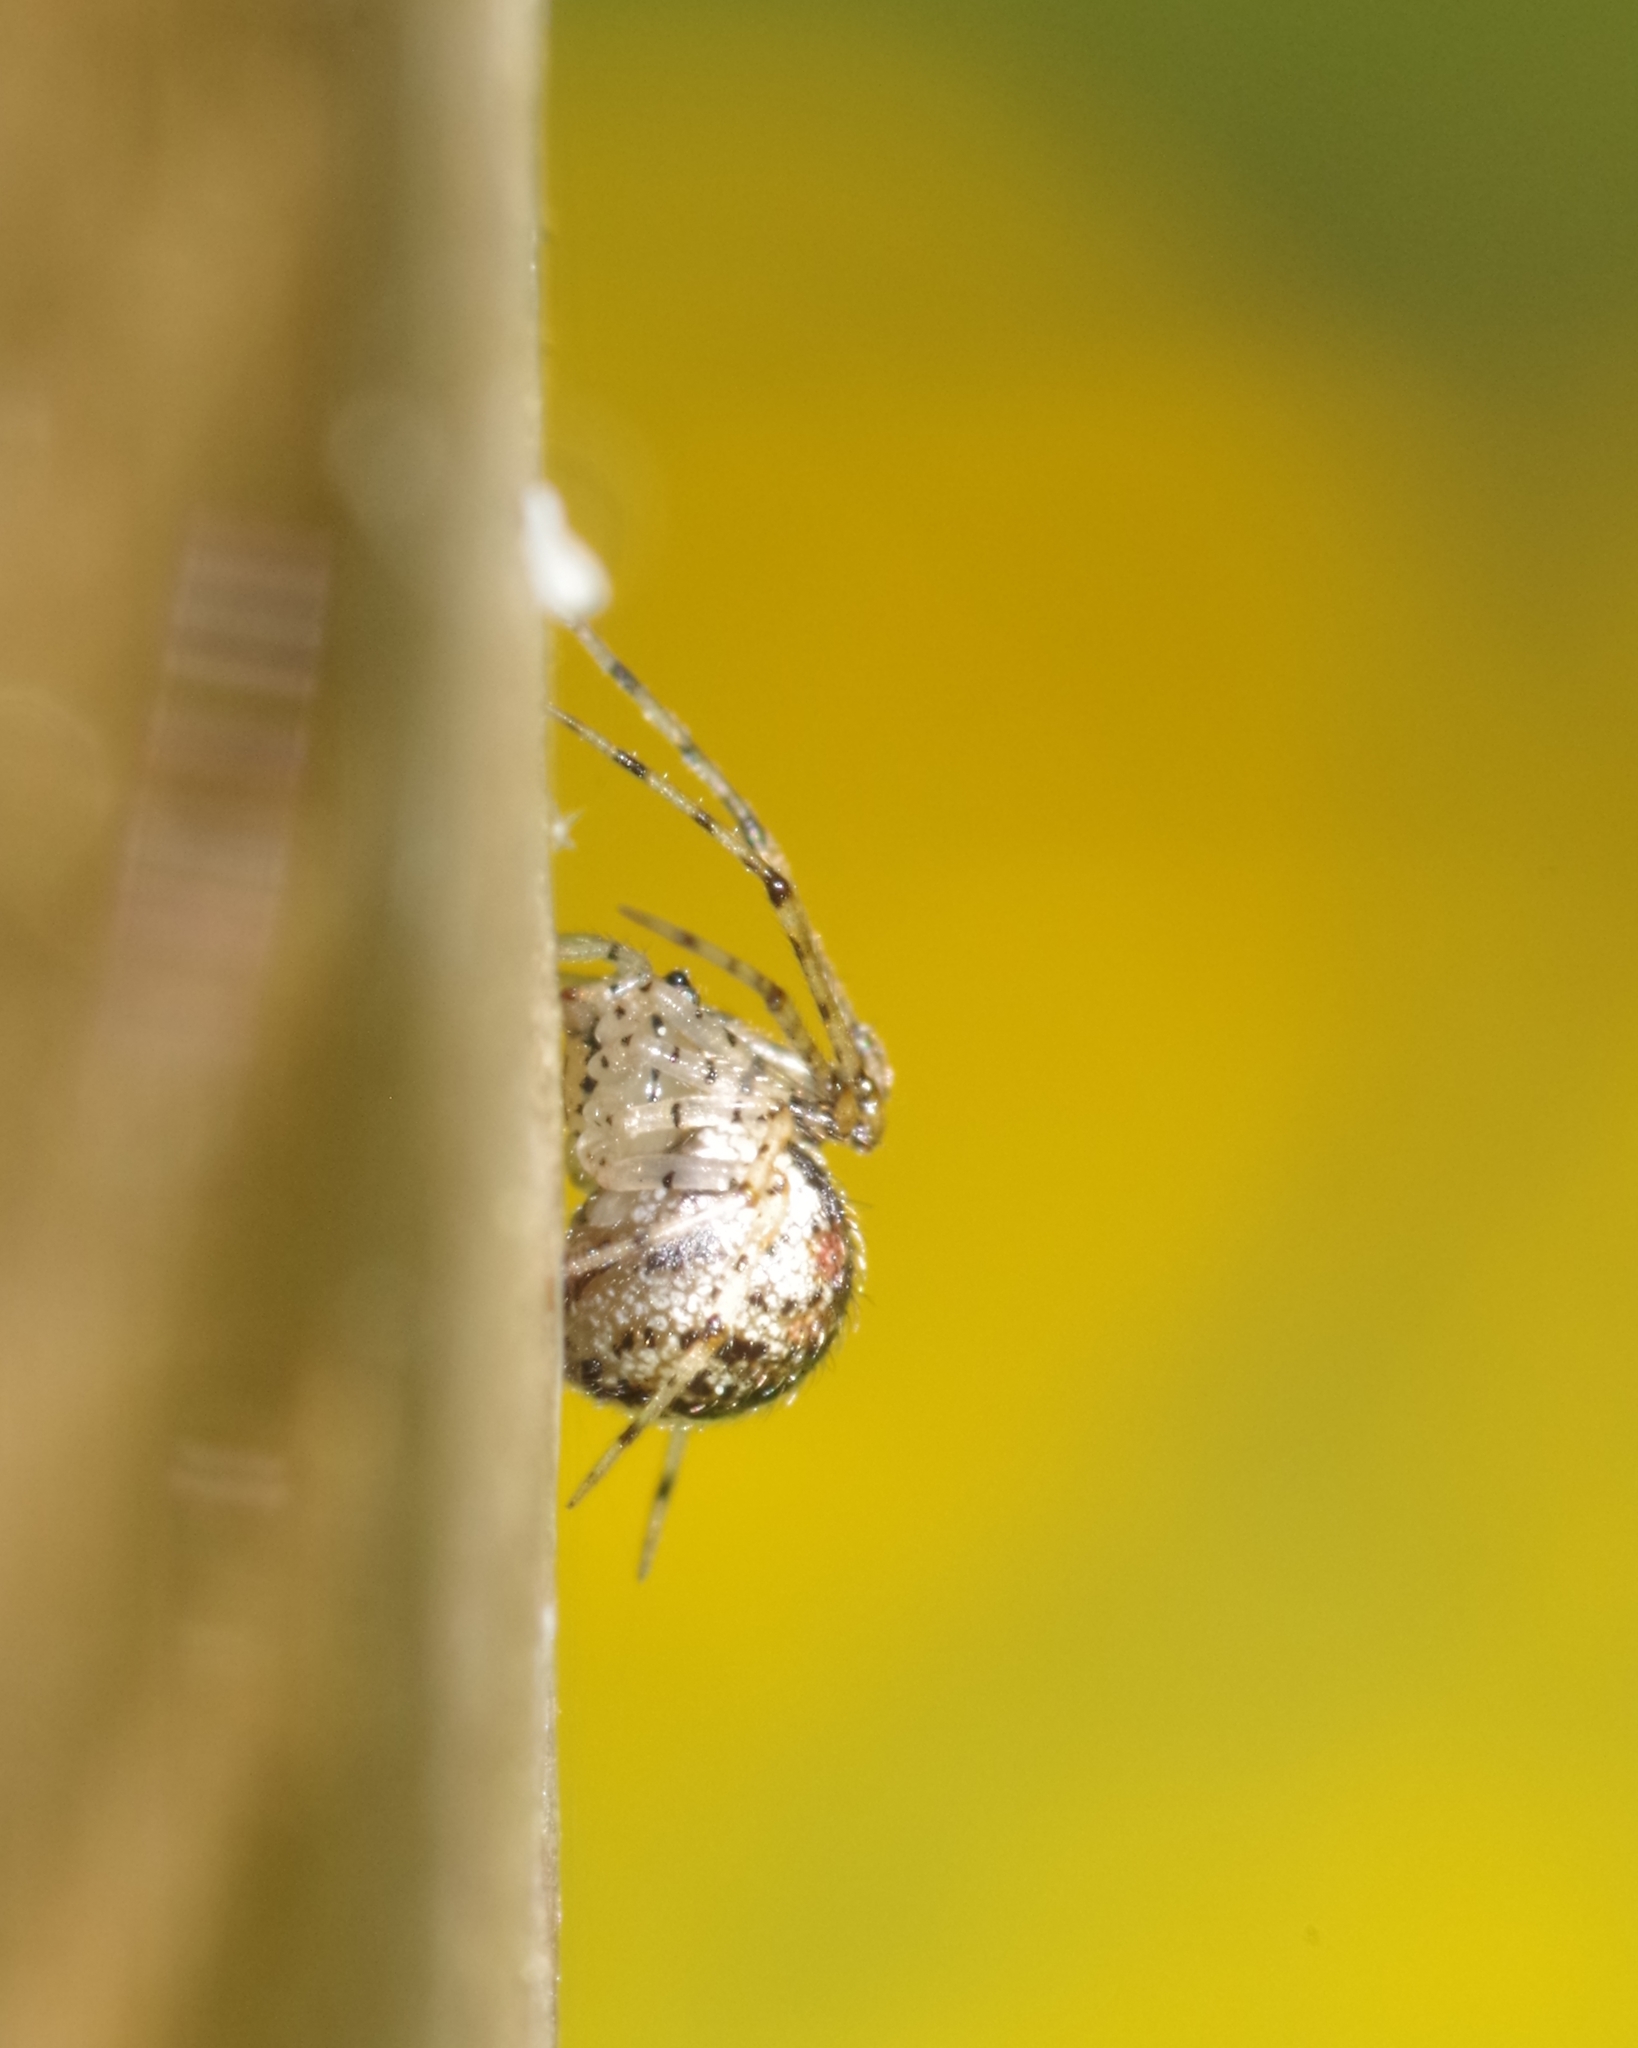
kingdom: Animalia
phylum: Arthropoda
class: Arachnida
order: Araneae
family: Theridiidae
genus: Platnickina
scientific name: Platnickina tincta
